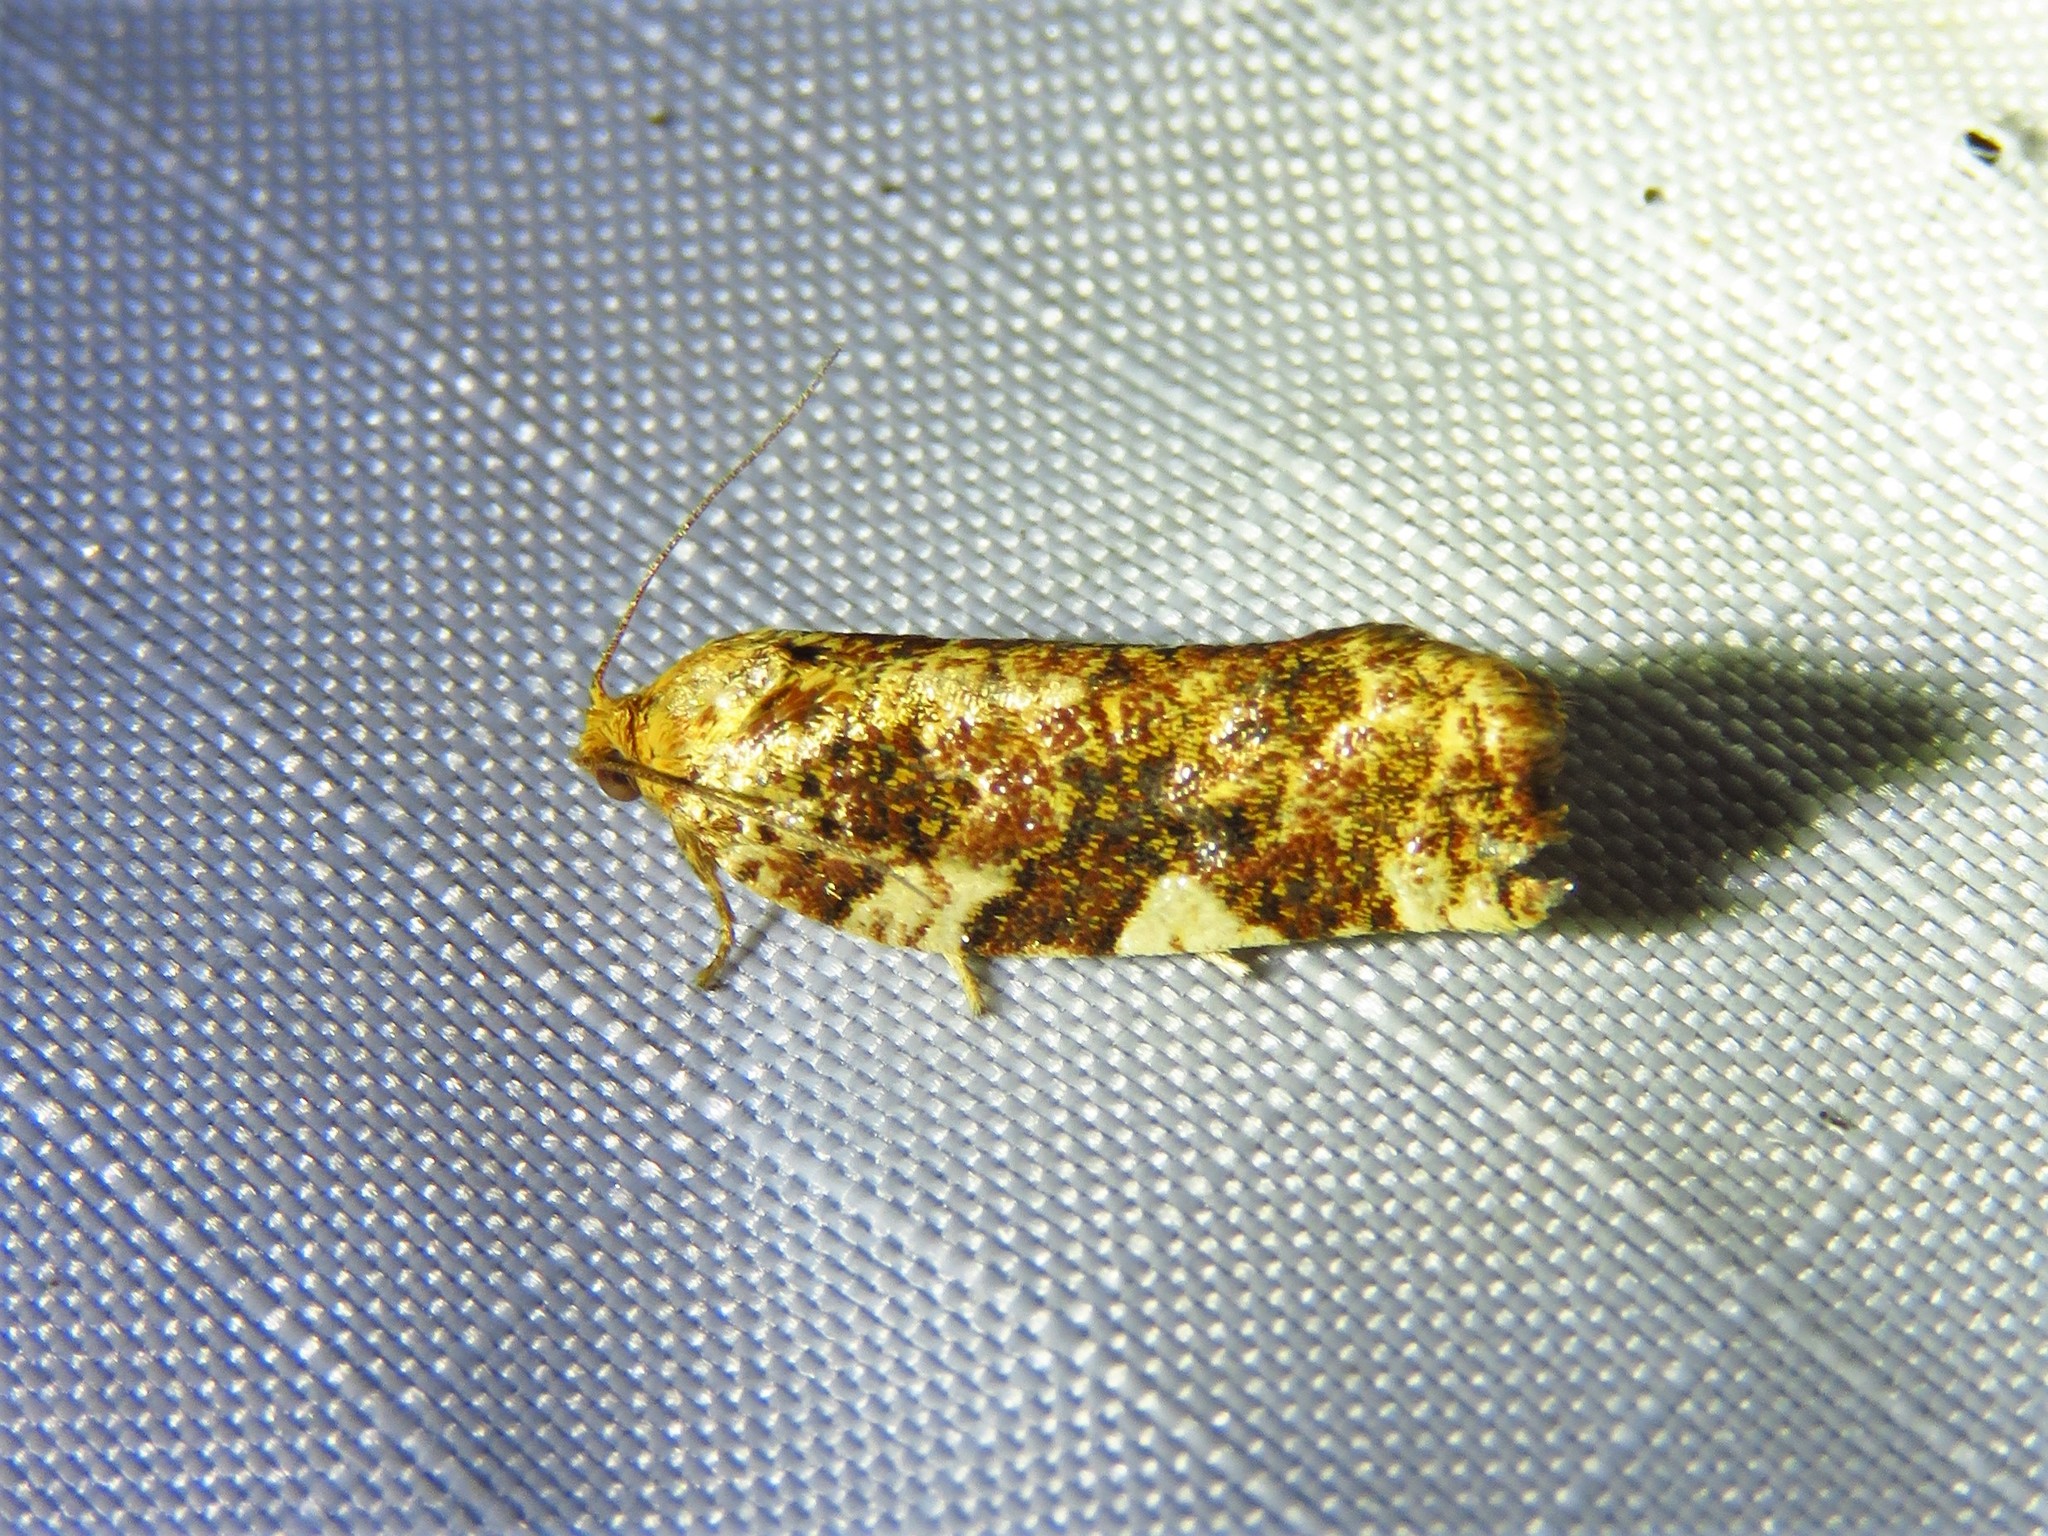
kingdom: Animalia
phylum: Arthropoda
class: Insecta
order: Lepidoptera
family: Tortricidae
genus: Archips
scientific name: Archips argyrospila
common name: Fruit-tree leafroller moth
